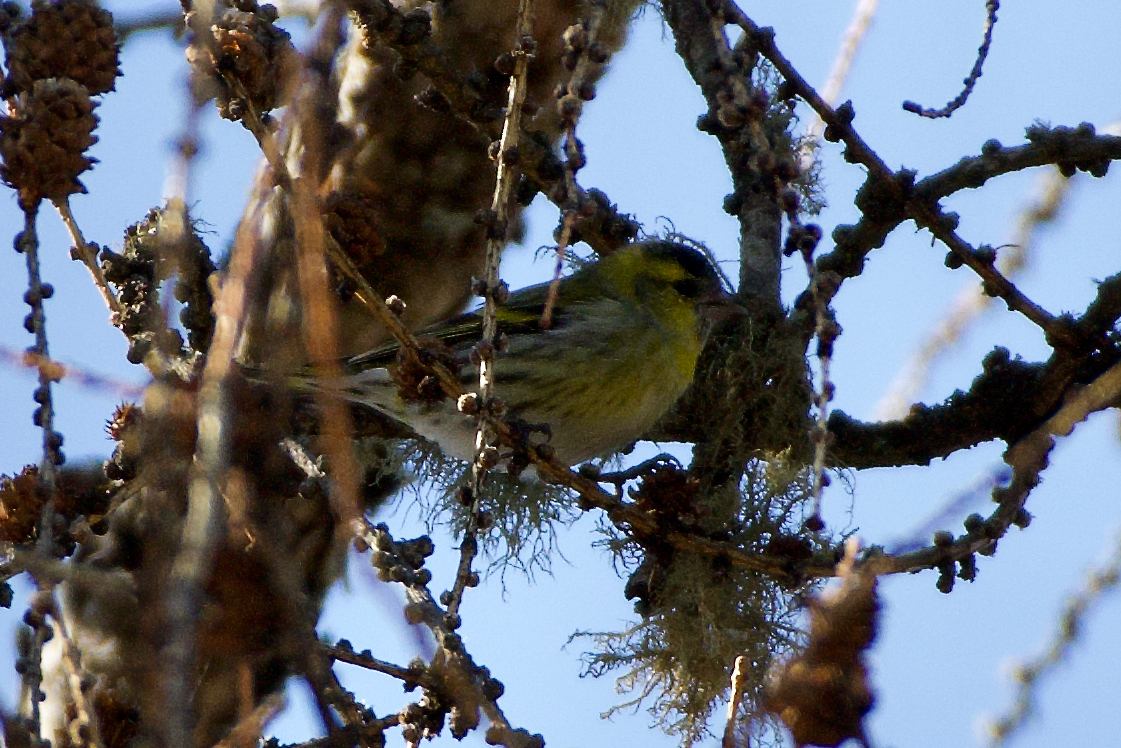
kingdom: Animalia
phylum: Chordata
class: Aves
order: Passeriformes
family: Fringillidae
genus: Spinus
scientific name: Spinus spinus
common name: Eurasian siskin
